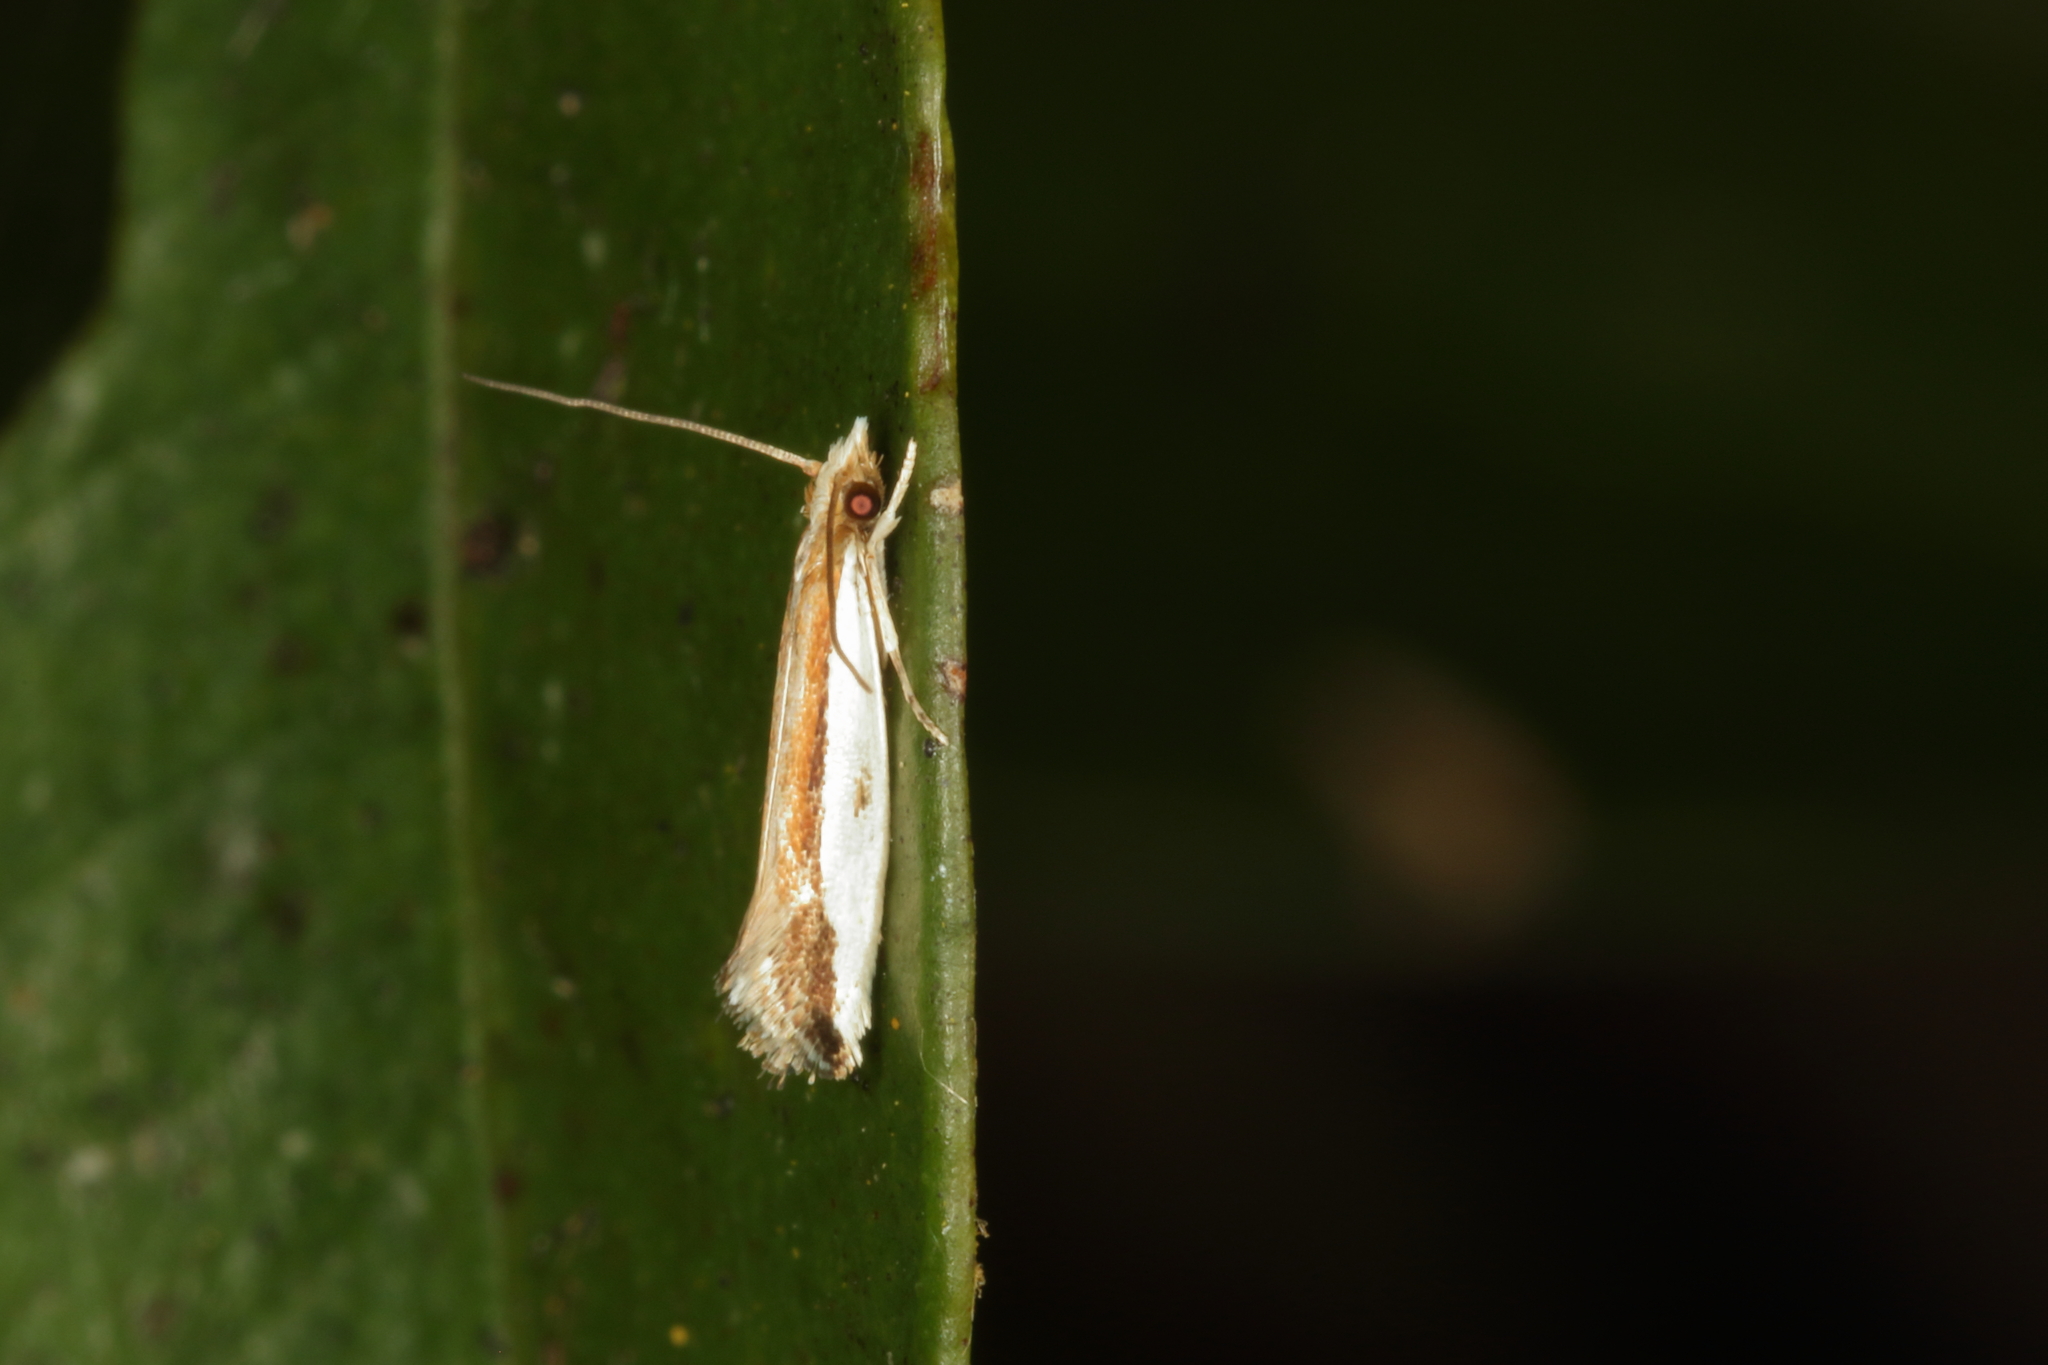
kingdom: Animalia
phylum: Arthropoda
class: Insecta
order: Lepidoptera
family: Tineidae
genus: Erechthias
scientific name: Erechthias chionodira
